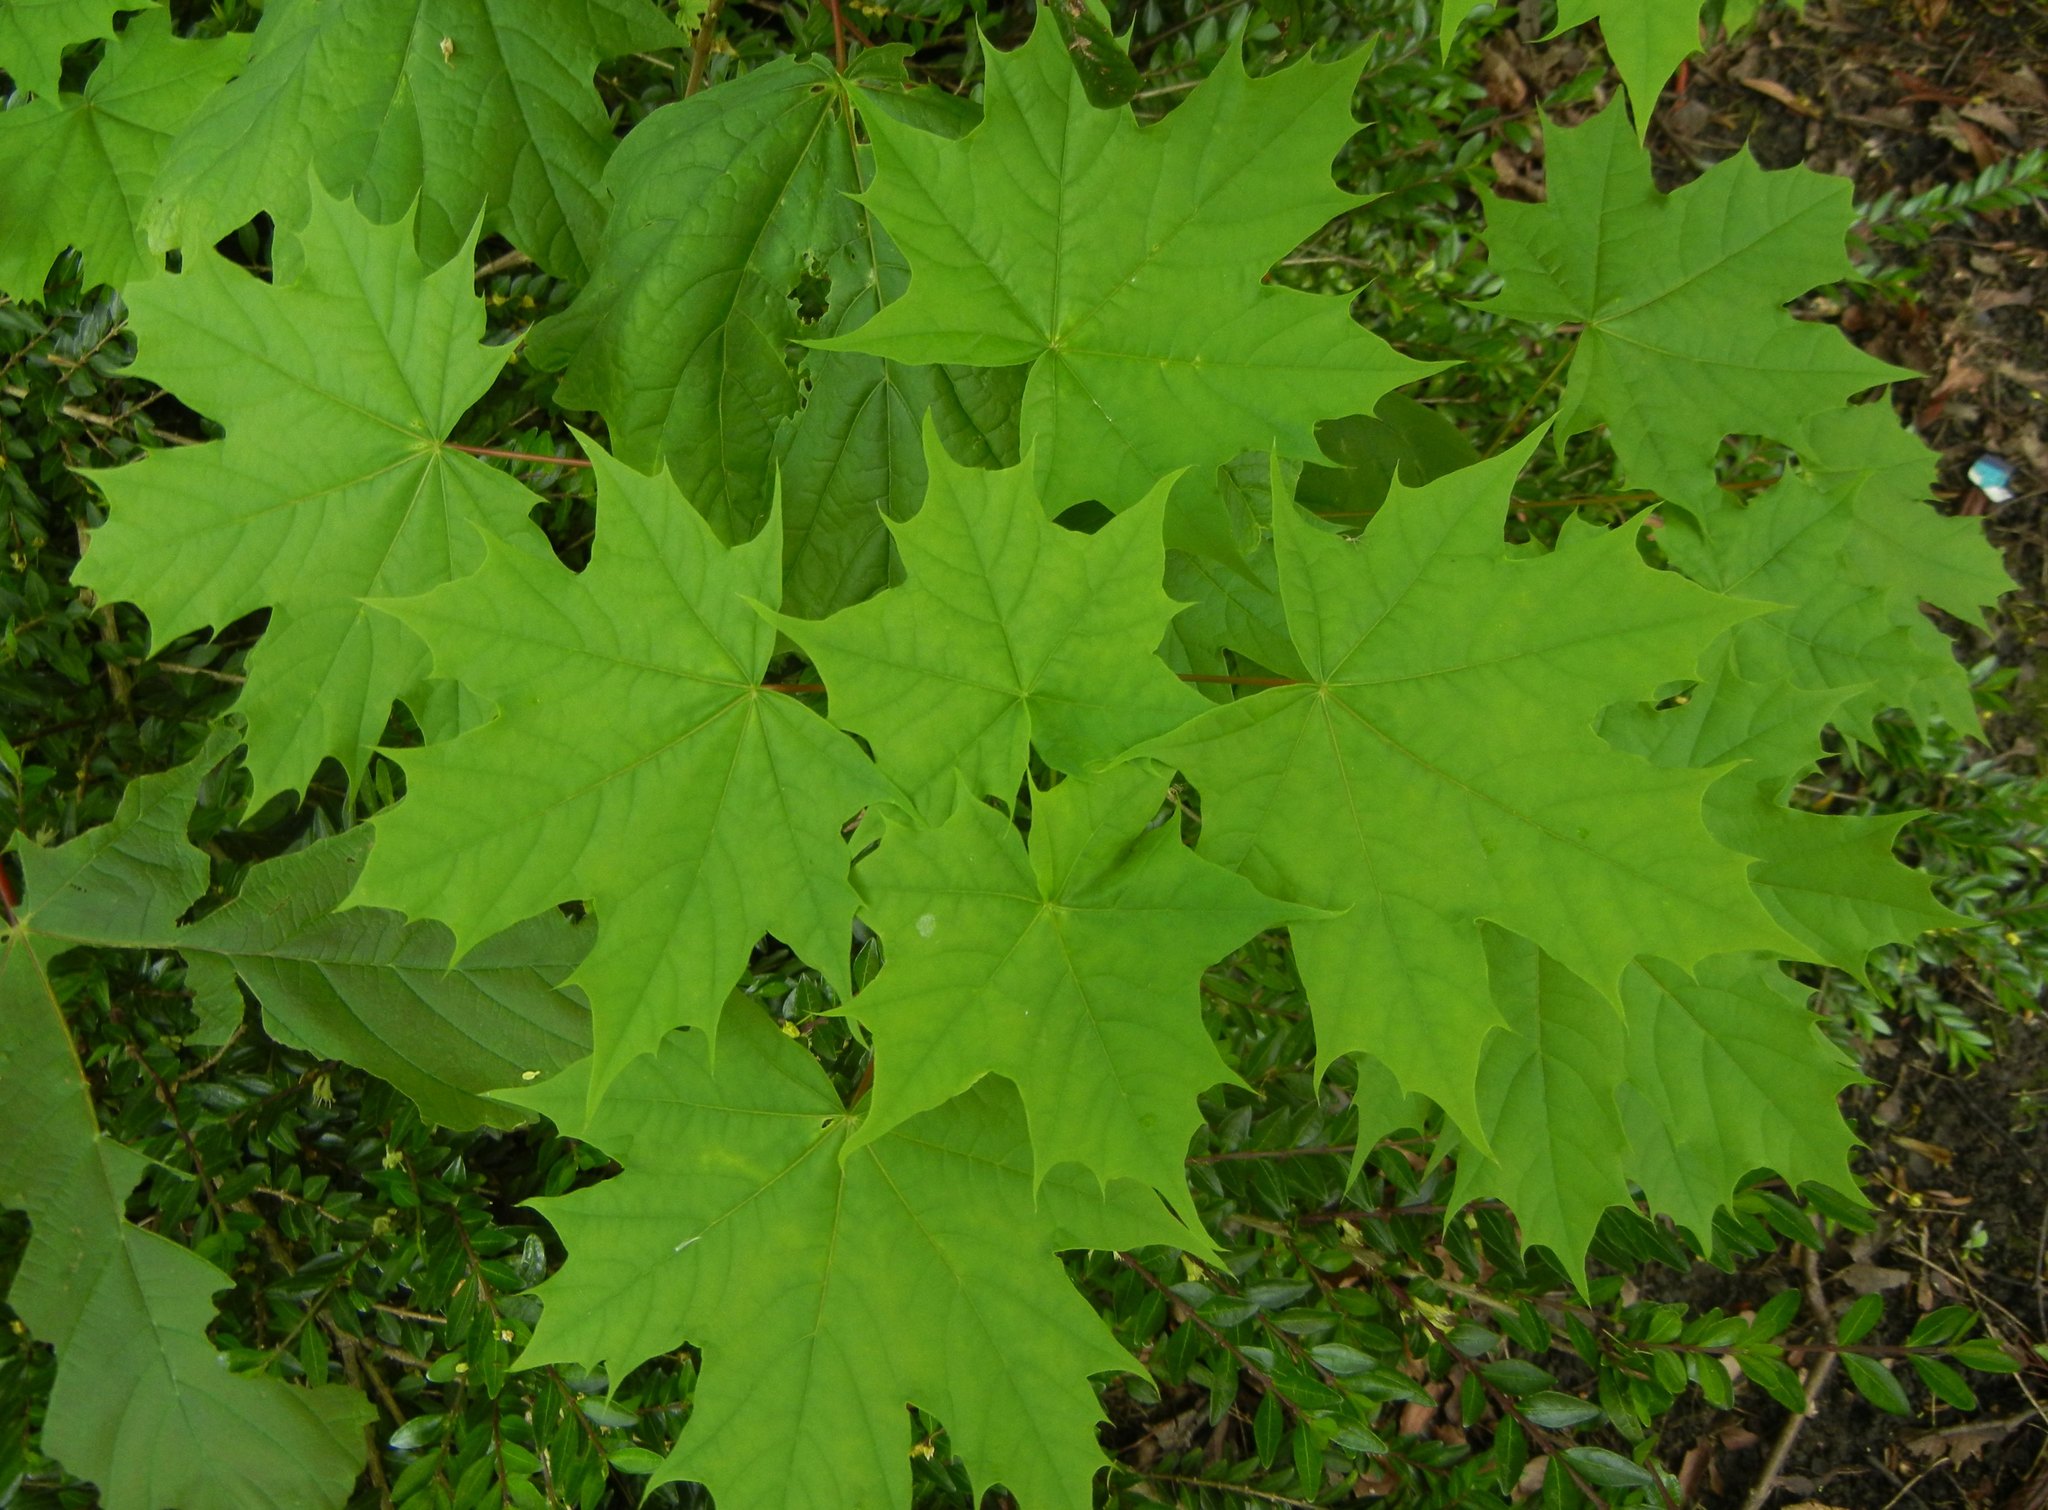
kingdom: Plantae
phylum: Tracheophyta
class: Magnoliopsida
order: Sapindales
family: Sapindaceae
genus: Acer
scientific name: Acer platanoides
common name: Norway maple
